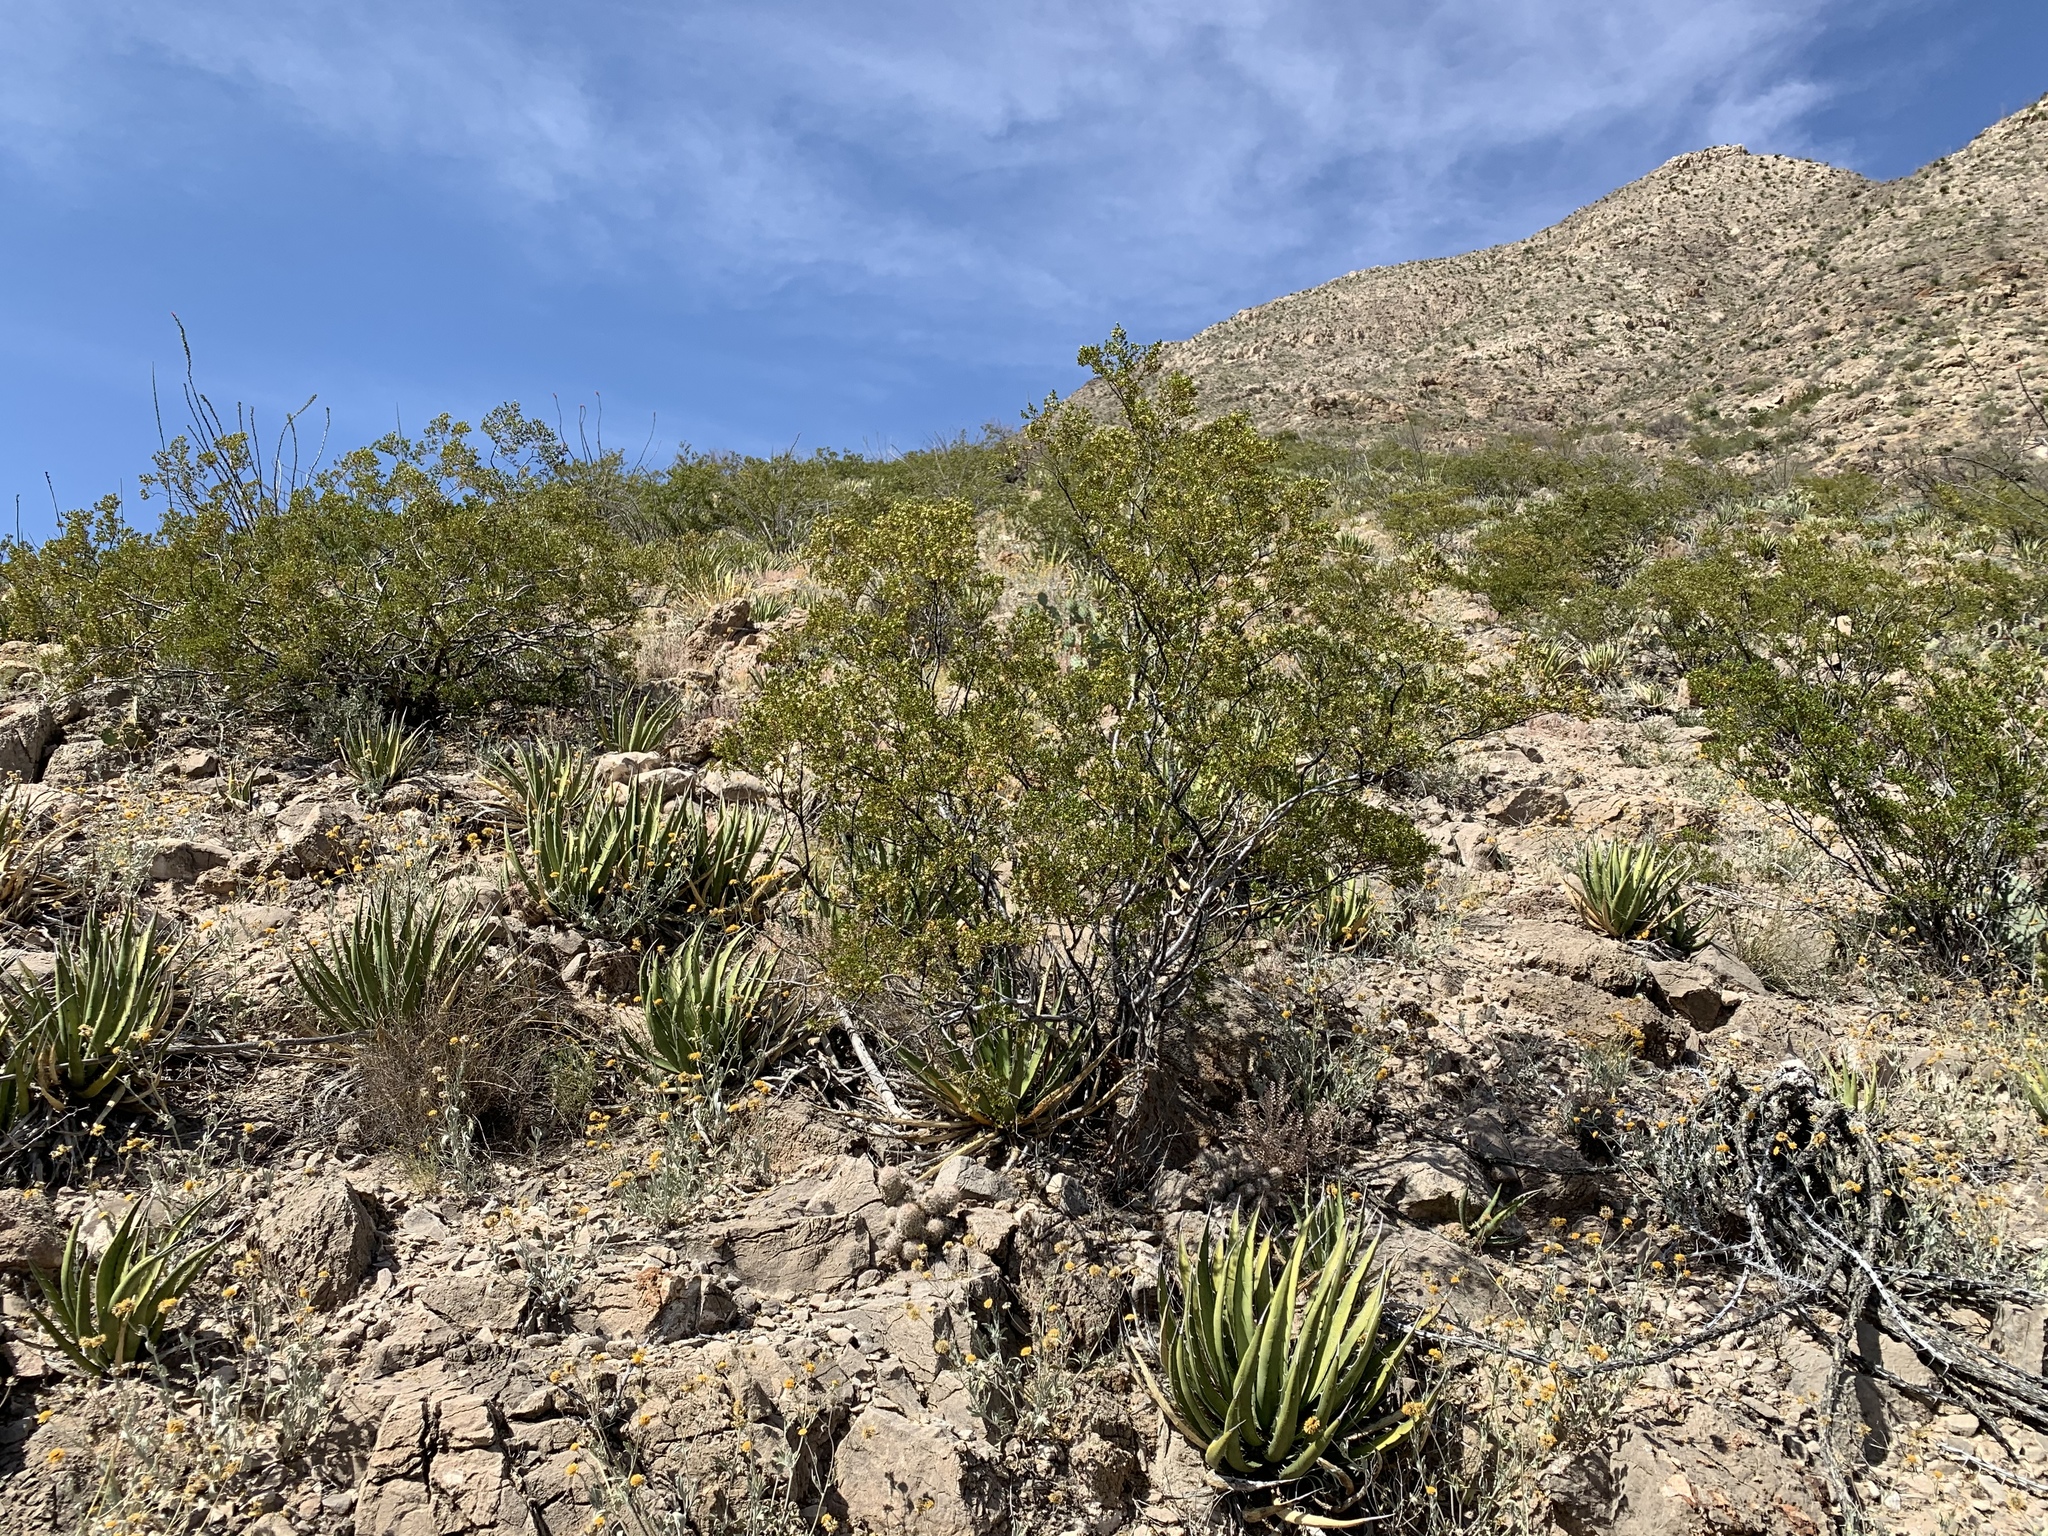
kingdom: Plantae
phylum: Tracheophyta
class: Magnoliopsida
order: Zygophyllales
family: Zygophyllaceae
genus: Larrea
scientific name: Larrea tridentata
